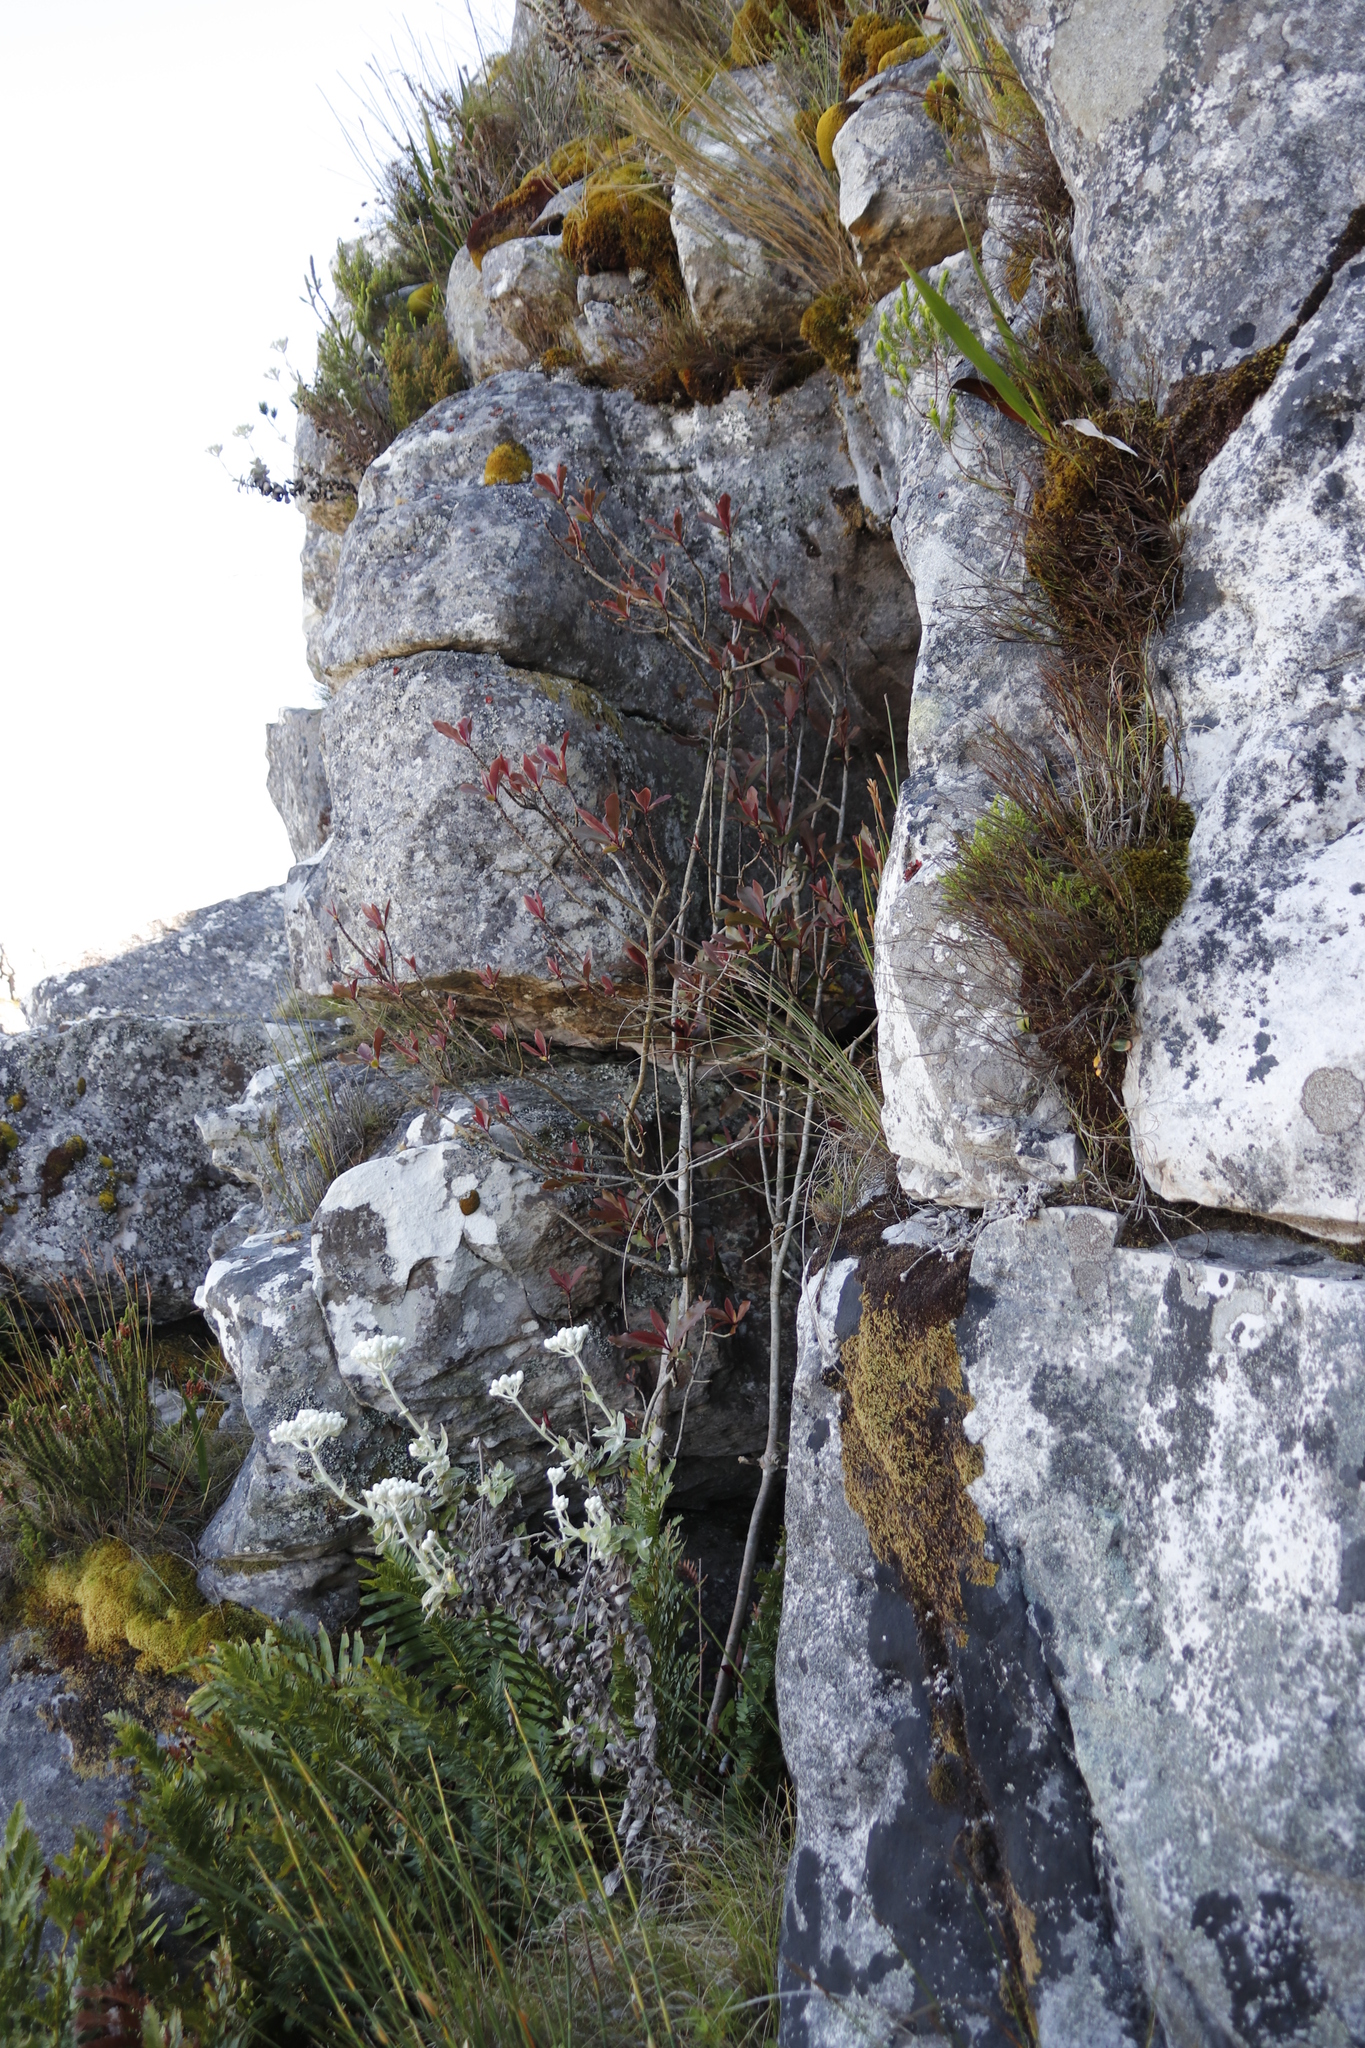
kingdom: Plantae
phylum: Tracheophyta
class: Magnoliopsida
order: Ericales
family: Primulaceae
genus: Myrsine
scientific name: Myrsine melanophloeos
